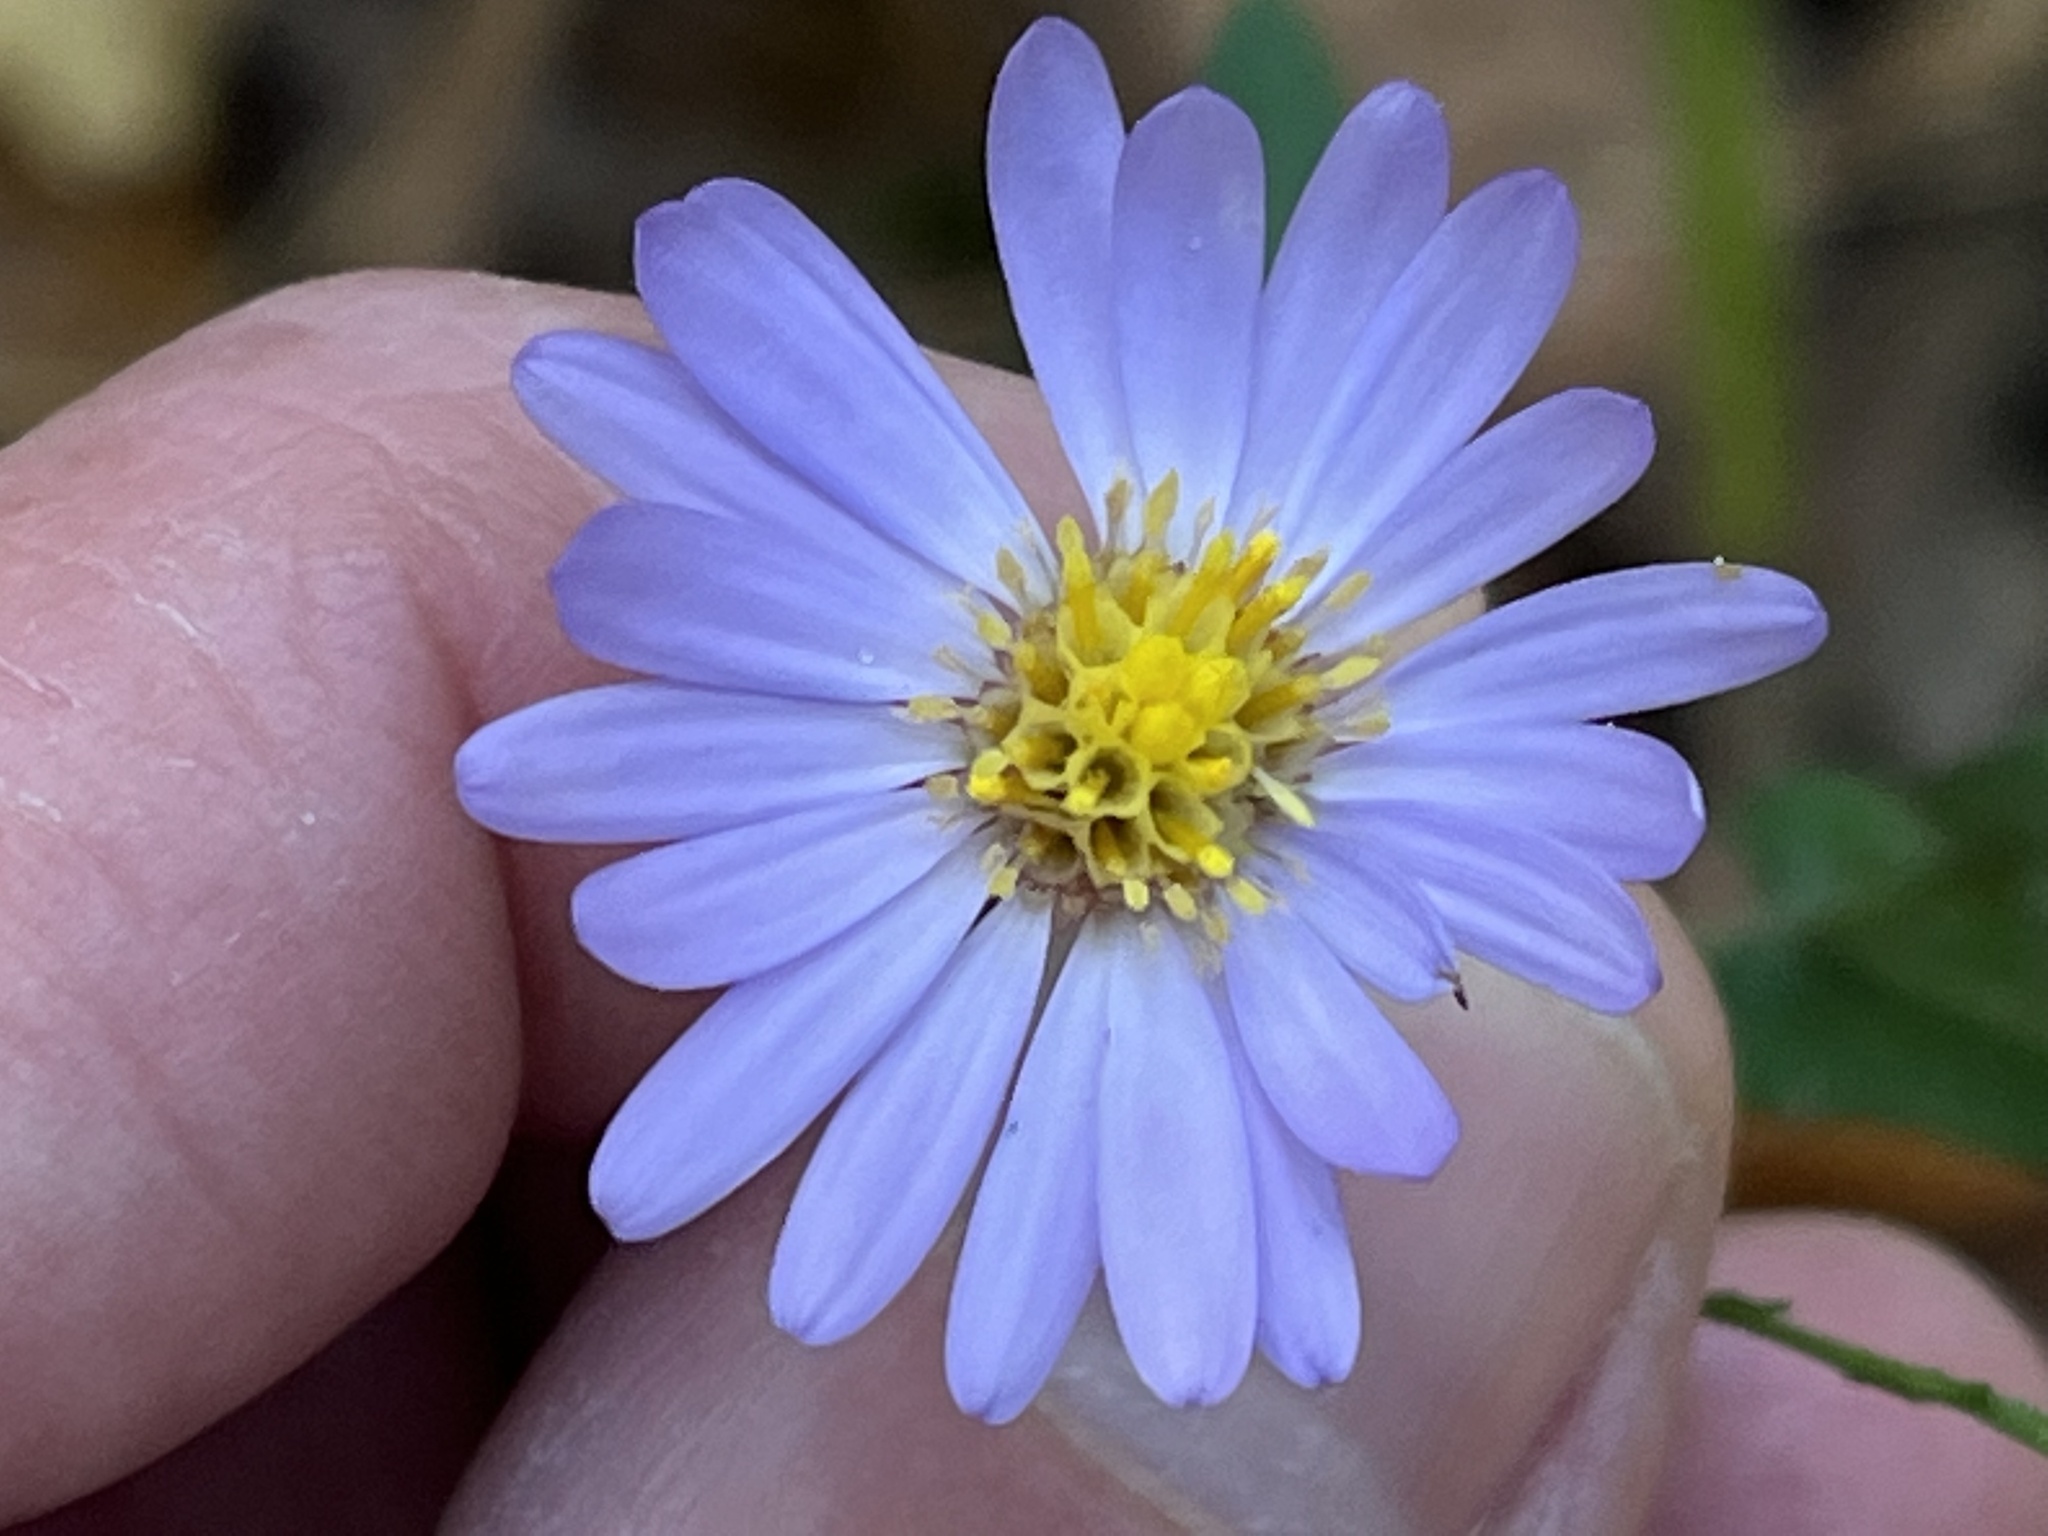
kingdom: Plantae
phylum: Tracheophyta
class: Magnoliopsida
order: Asterales
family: Asteraceae
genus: Symphyotrichum
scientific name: Symphyotrichum patens
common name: Late purple aster
